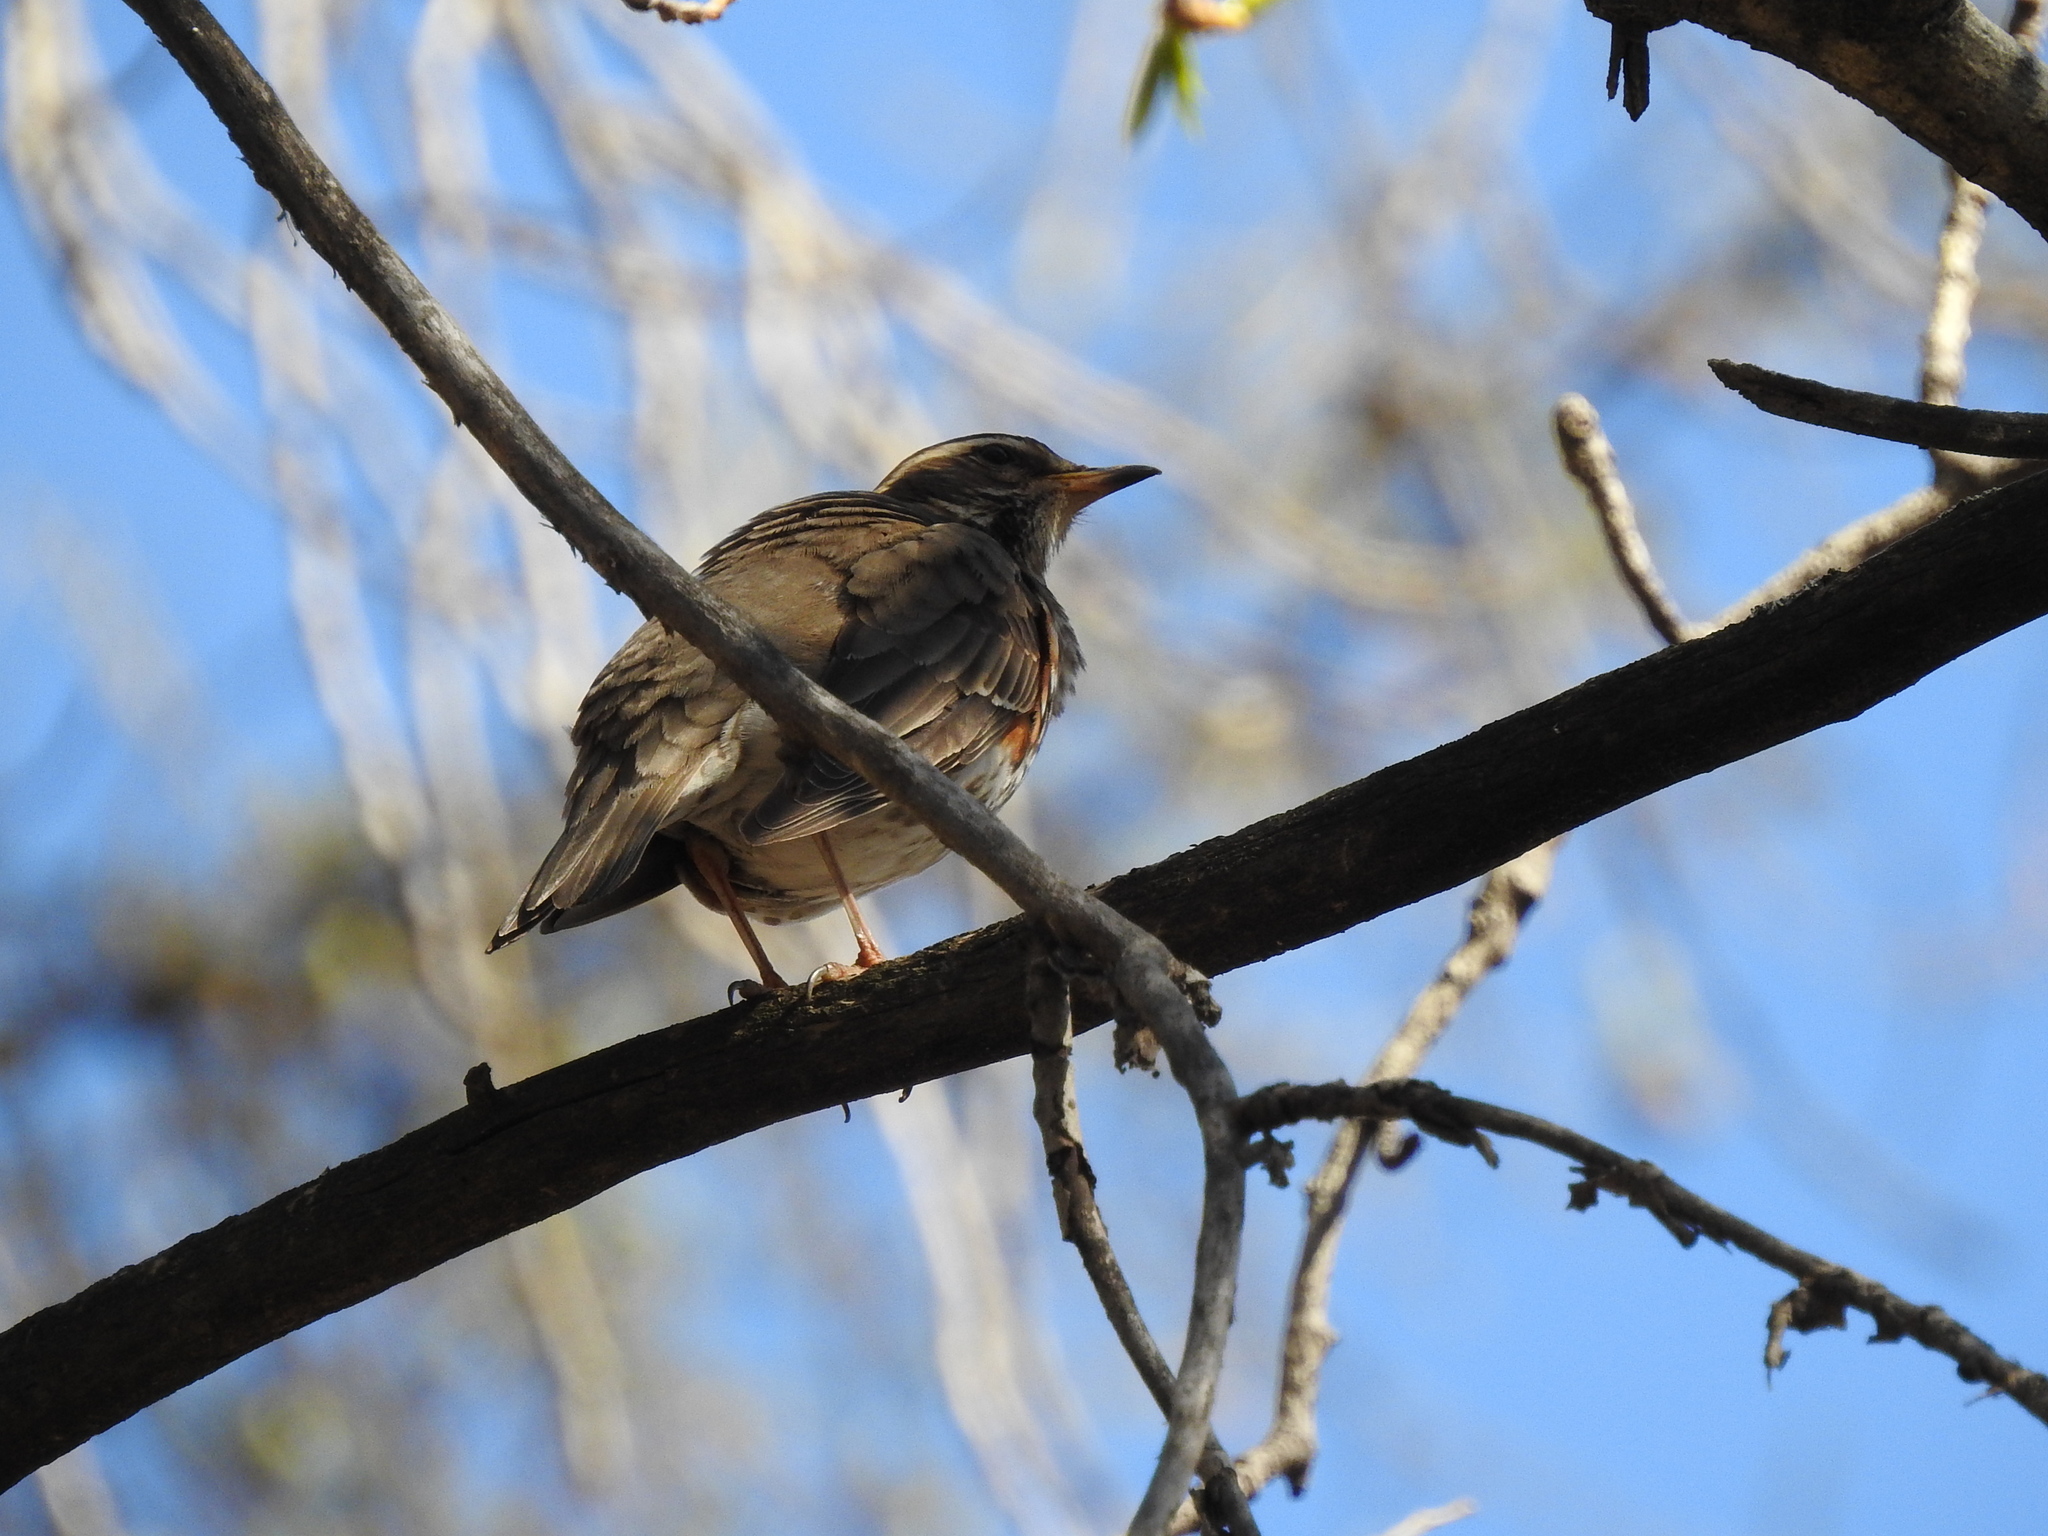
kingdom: Animalia
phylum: Chordata
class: Aves
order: Passeriformes
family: Turdidae
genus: Turdus
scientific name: Turdus iliacus
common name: Redwing
